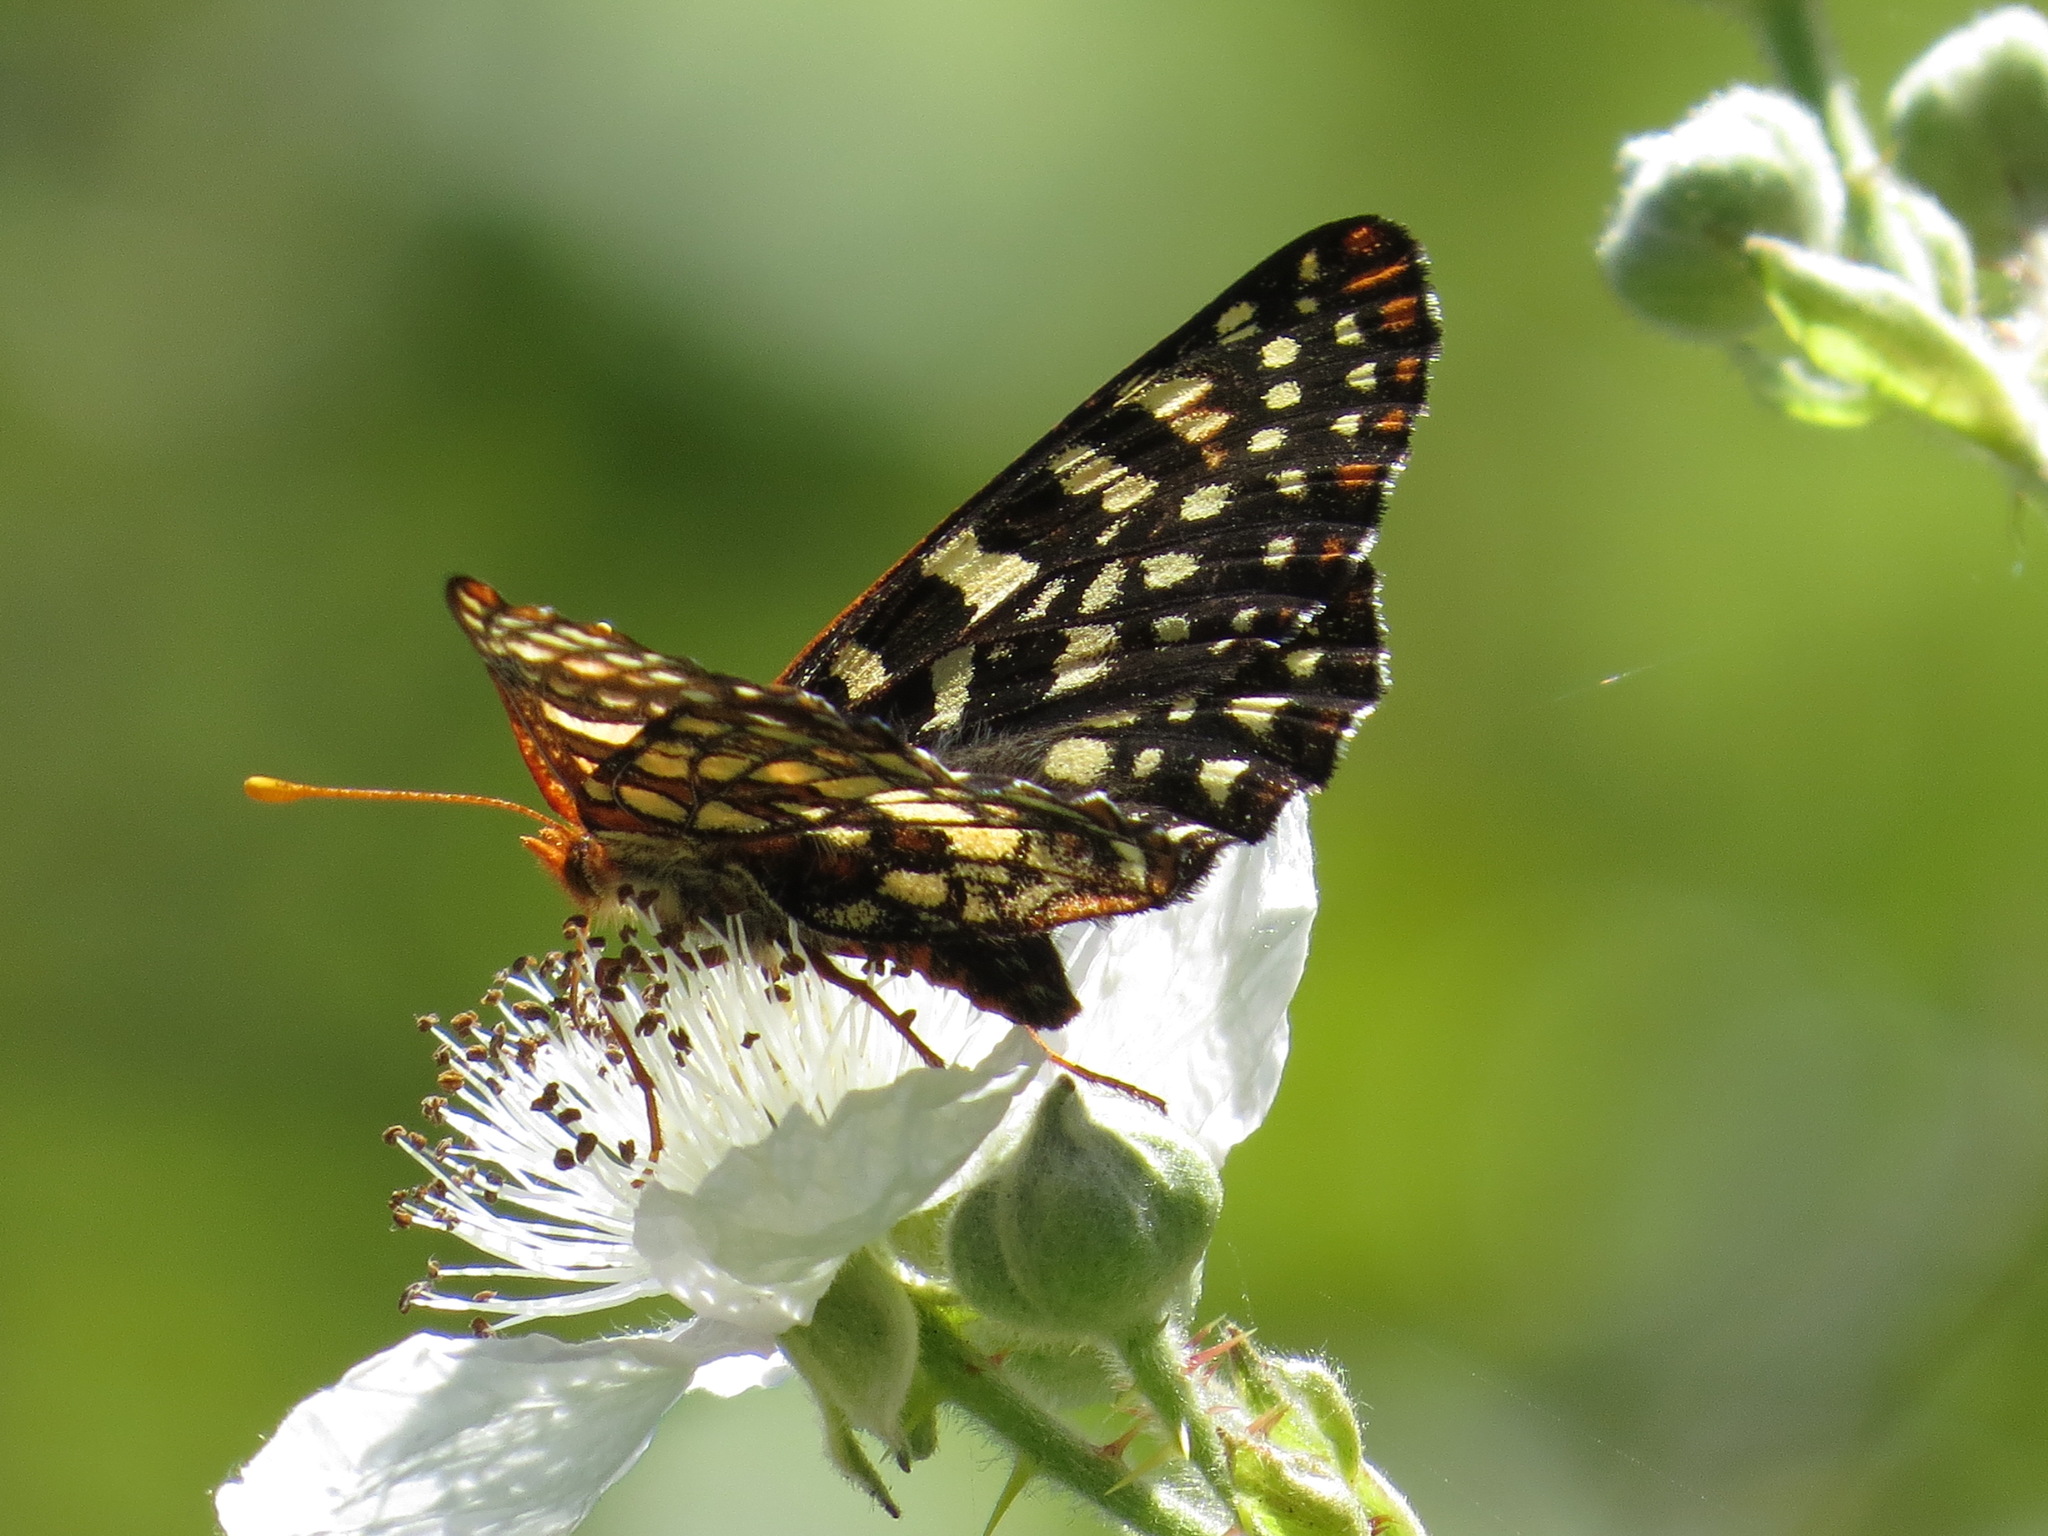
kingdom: Animalia
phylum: Arthropoda
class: Insecta
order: Lepidoptera
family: Nymphalidae
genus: Occidryas
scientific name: Occidryas chalcedona
